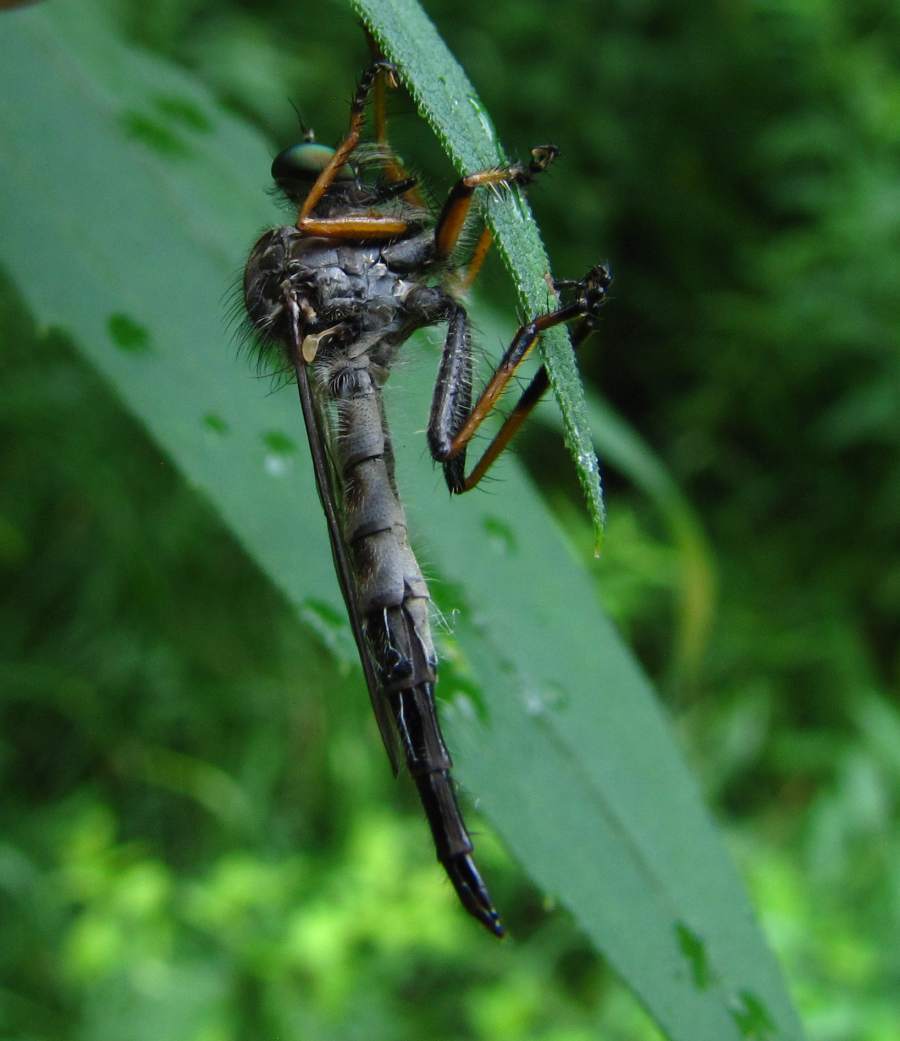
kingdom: Animalia
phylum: Arthropoda
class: Insecta
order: Diptera
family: Asilidae
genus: Asilus
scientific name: Asilus flavofemoratus
